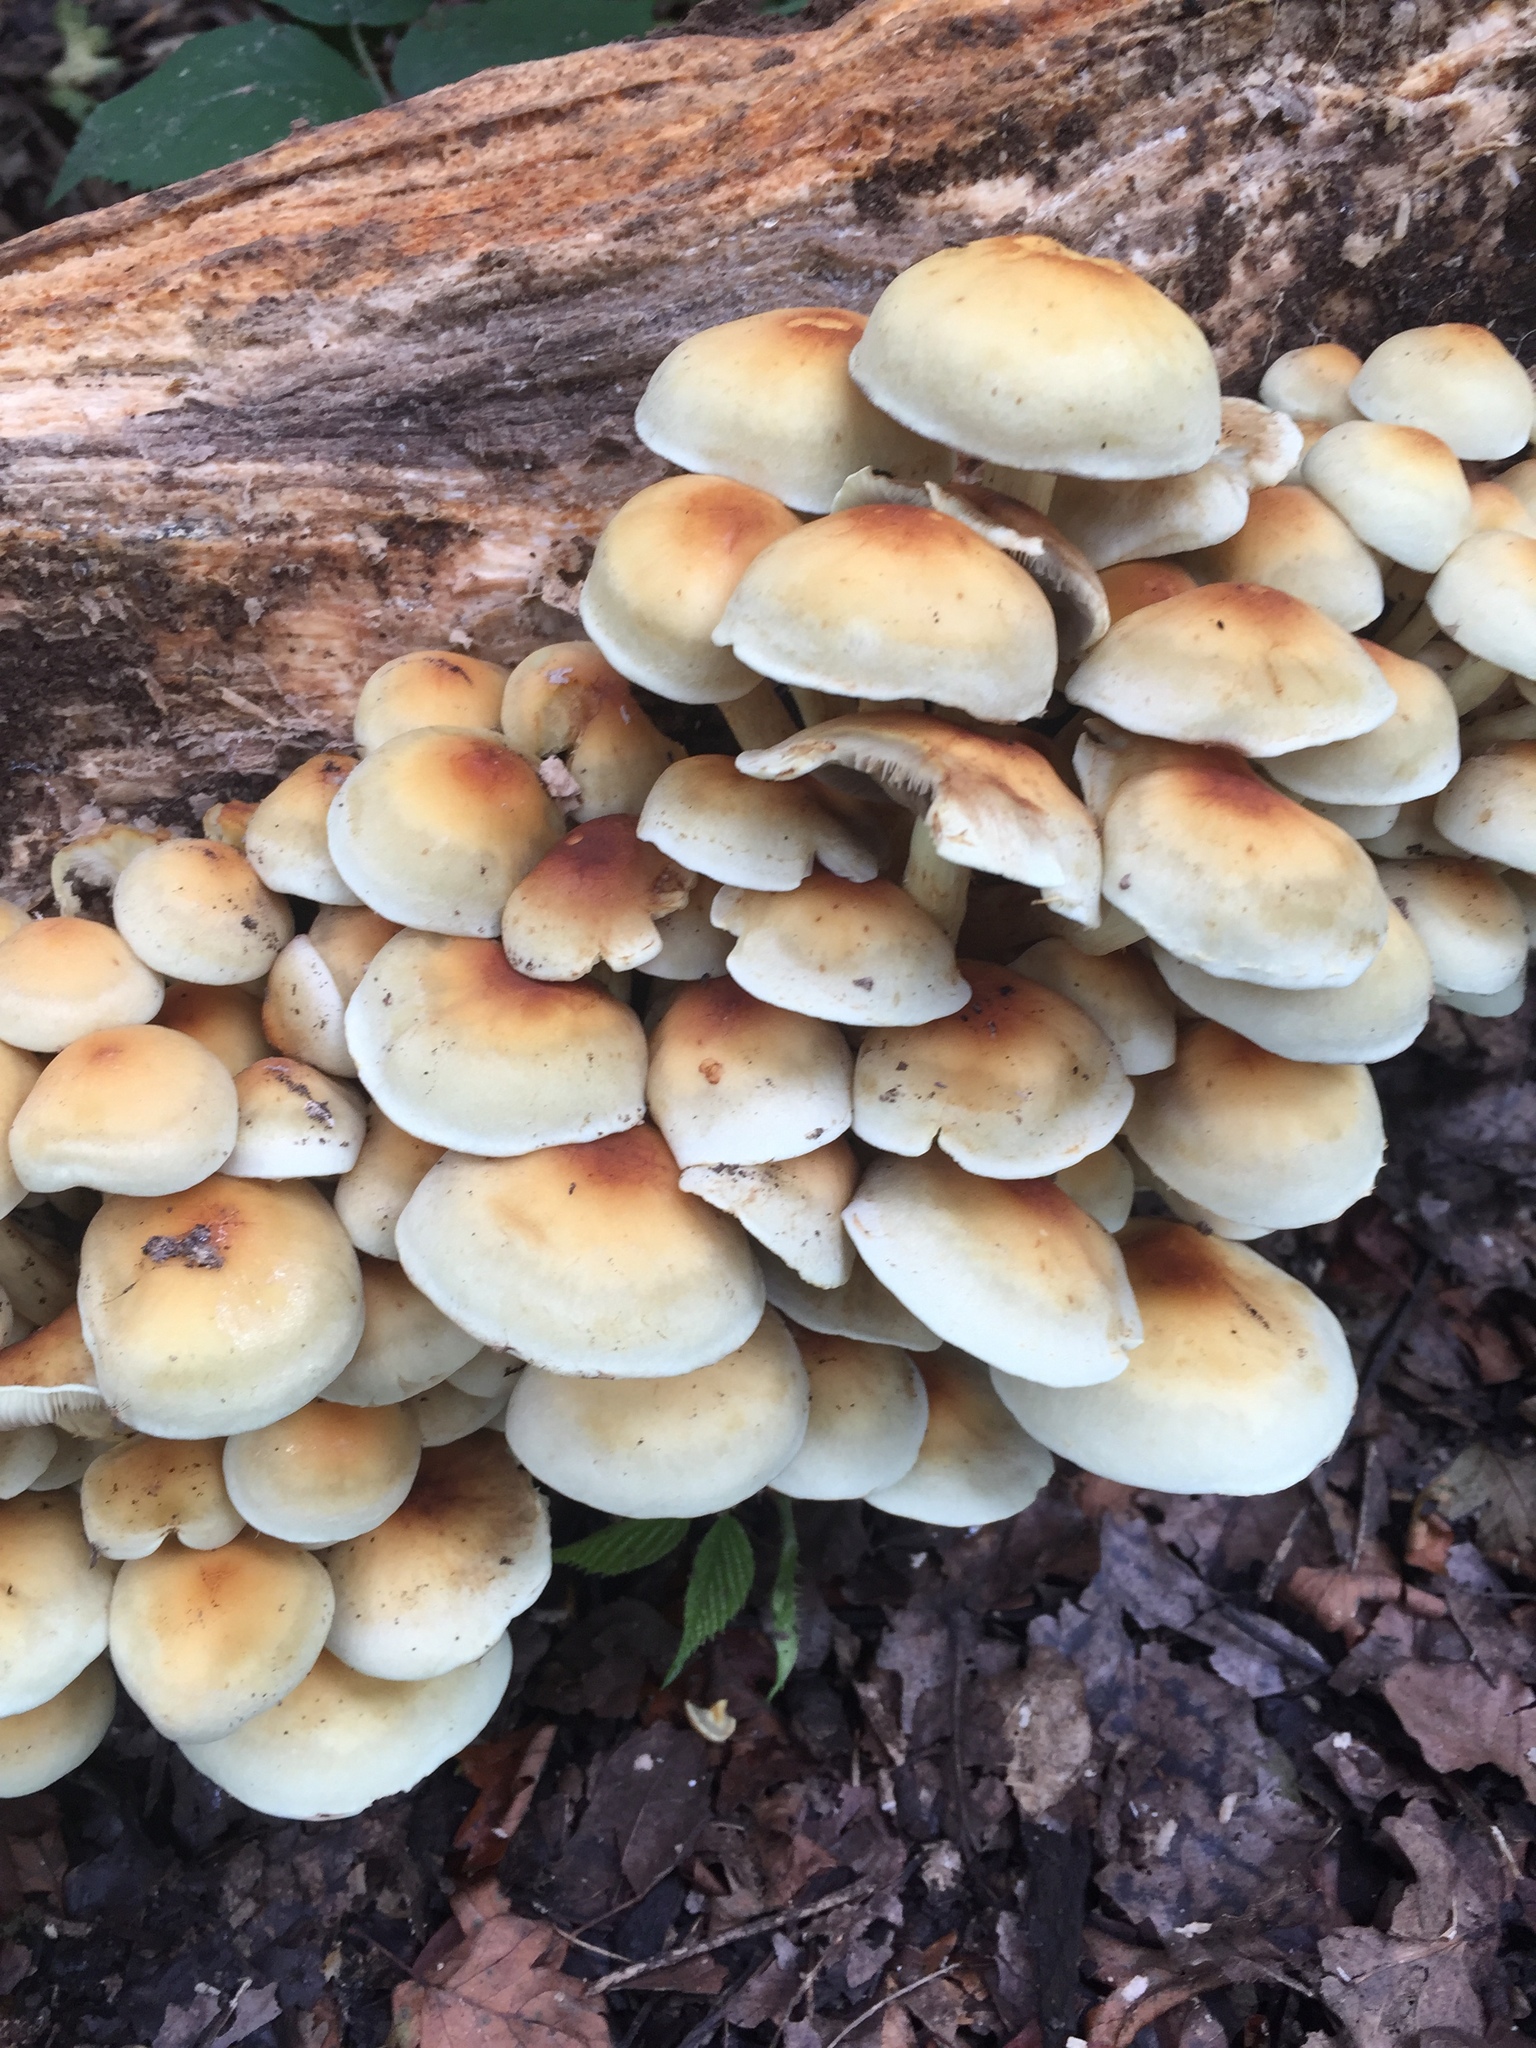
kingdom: Fungi
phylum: Basidiomycota
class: Agaricomycetes
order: Agaricales
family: Strophariaceae
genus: Hypholoma
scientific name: Hypholoma capnoides
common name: Conifer tuft
